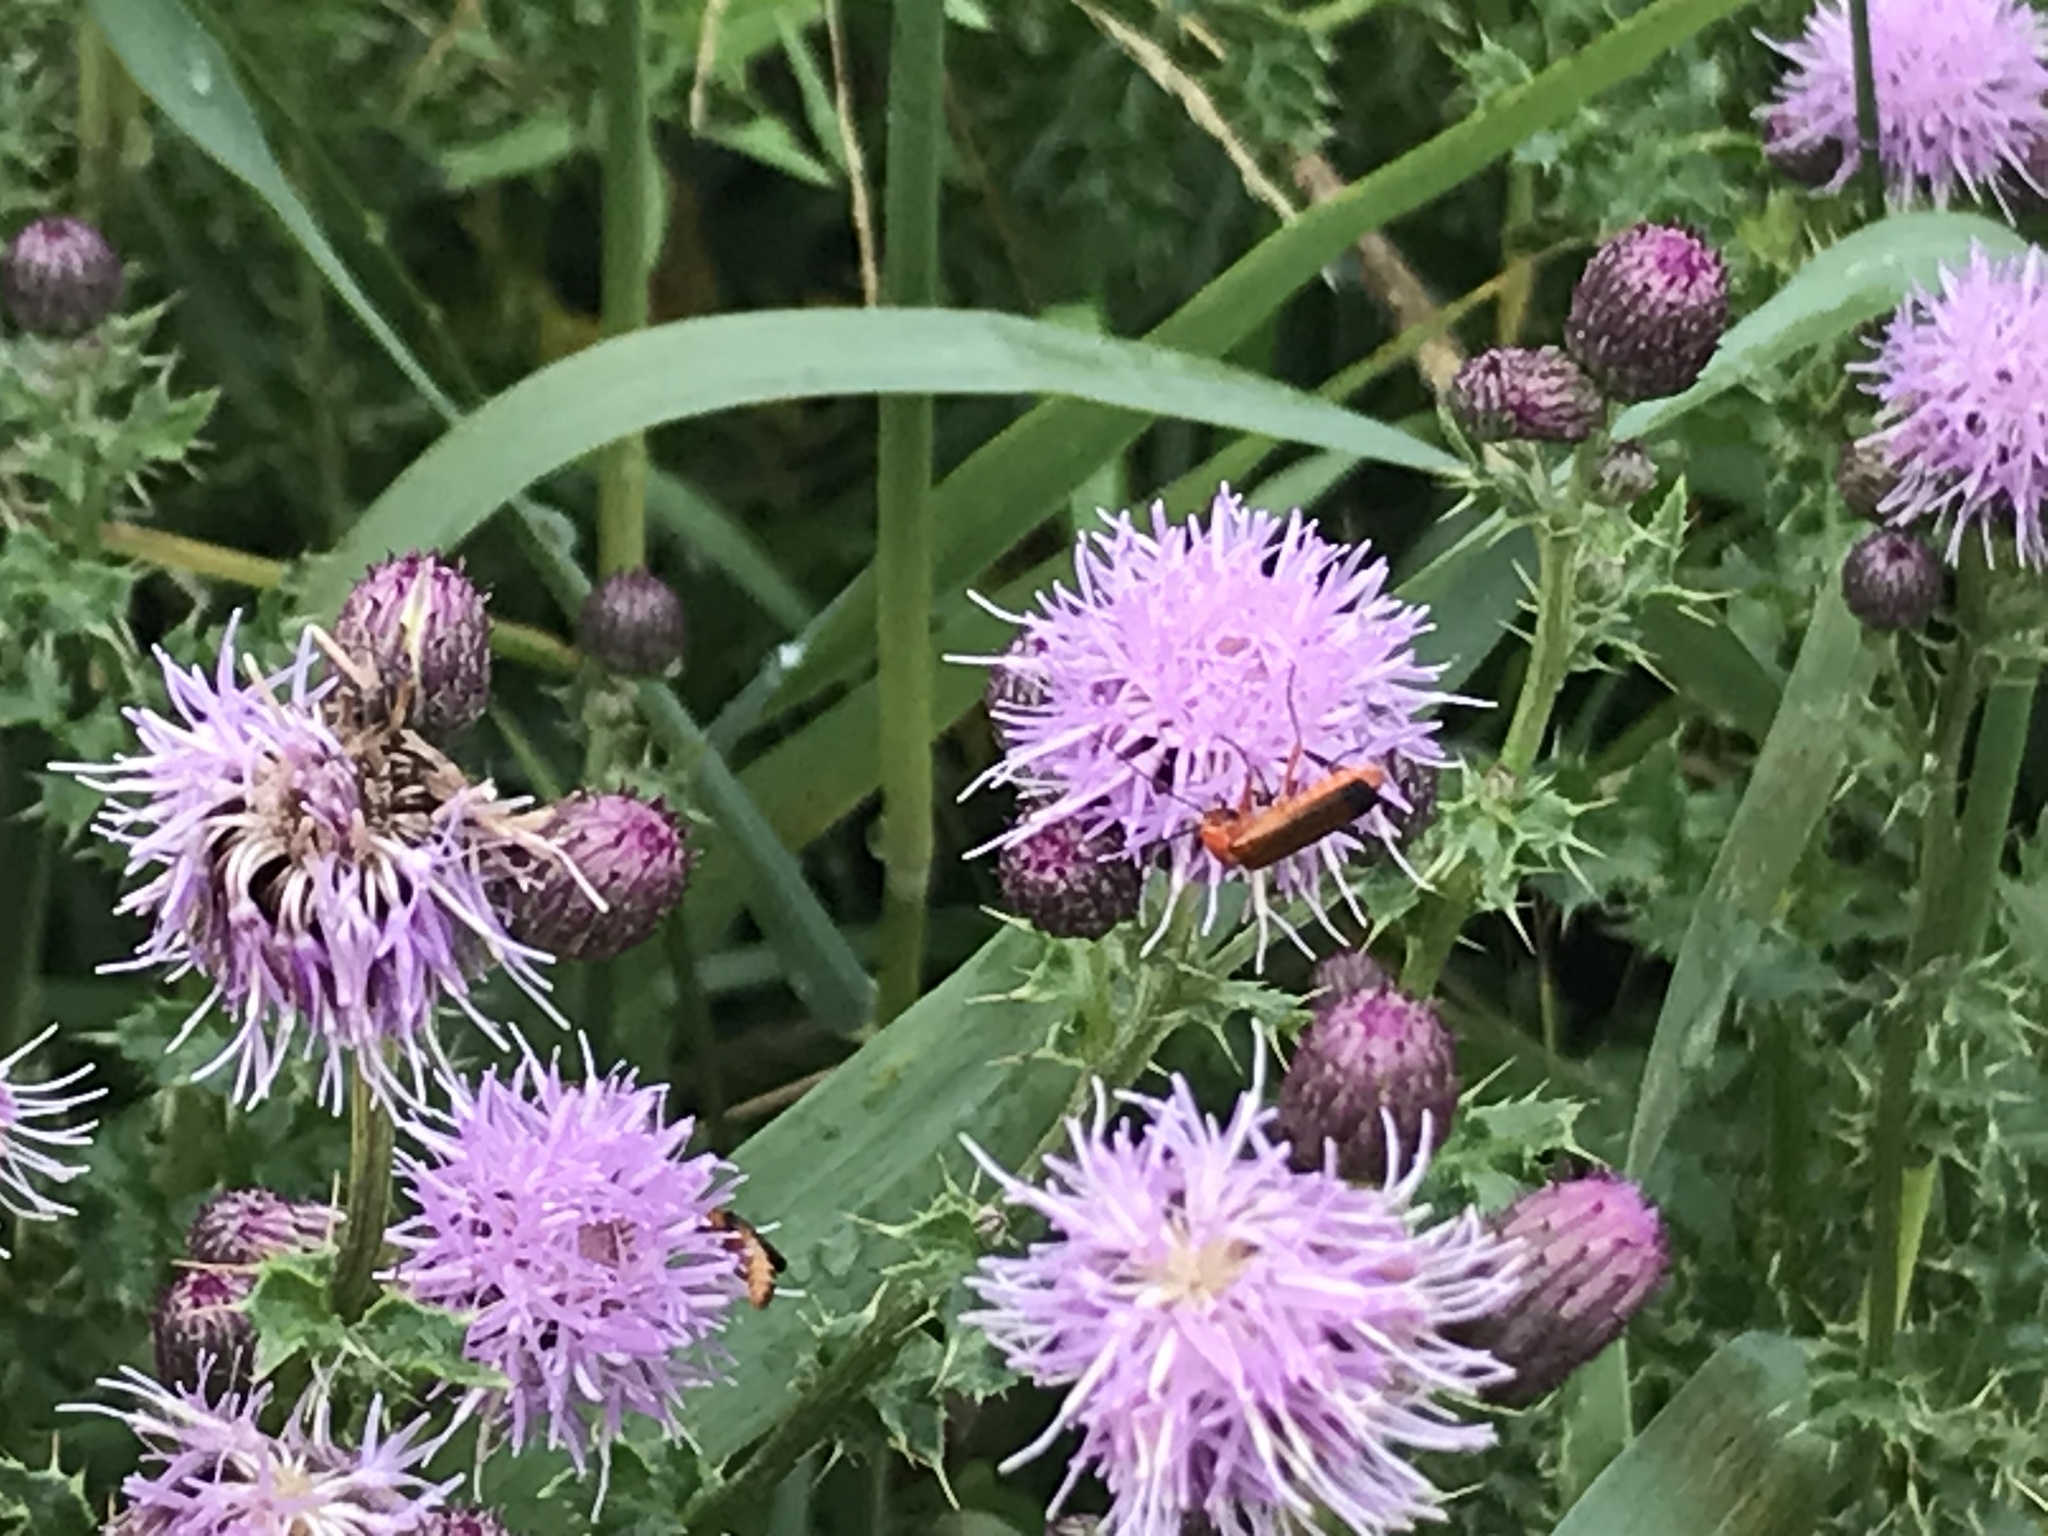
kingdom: Animalia
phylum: Arthropoda
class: Insecta
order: Coleoptera
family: Cantharidae
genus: Rhagonycha
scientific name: Rhagonycha fulva
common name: Common red soldier beetle
